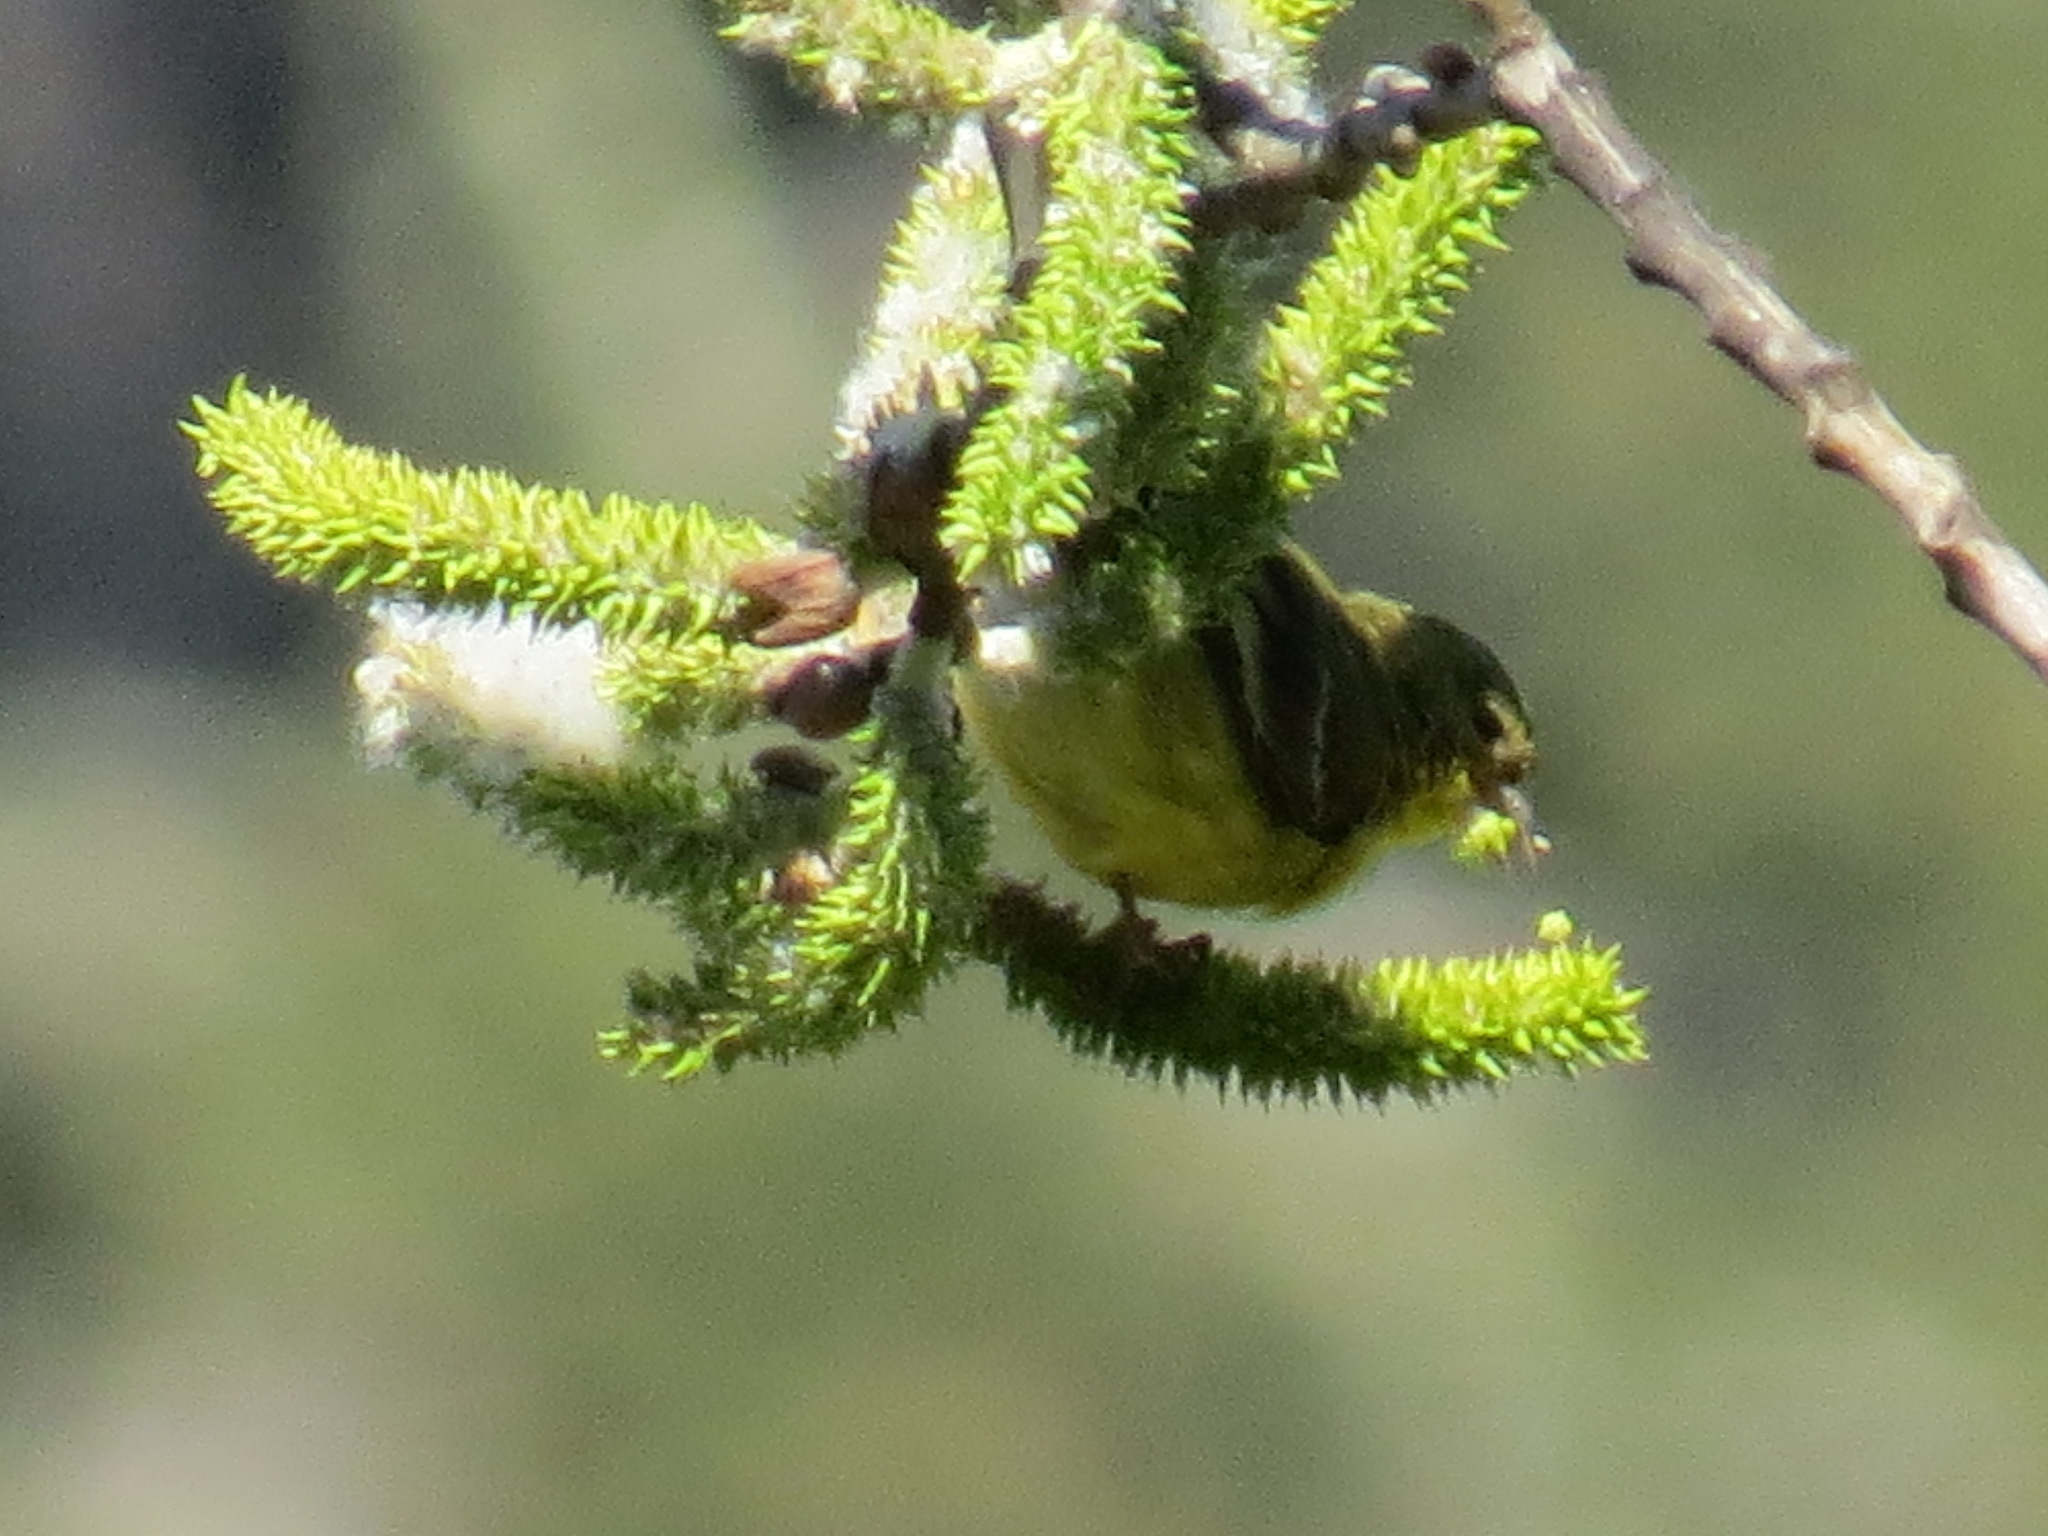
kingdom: Animalia
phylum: Chordata
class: Aves
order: Passeriformes
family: Fringillidae
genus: Spinus
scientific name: Spinus psaltria
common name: Lesser goldfinch
